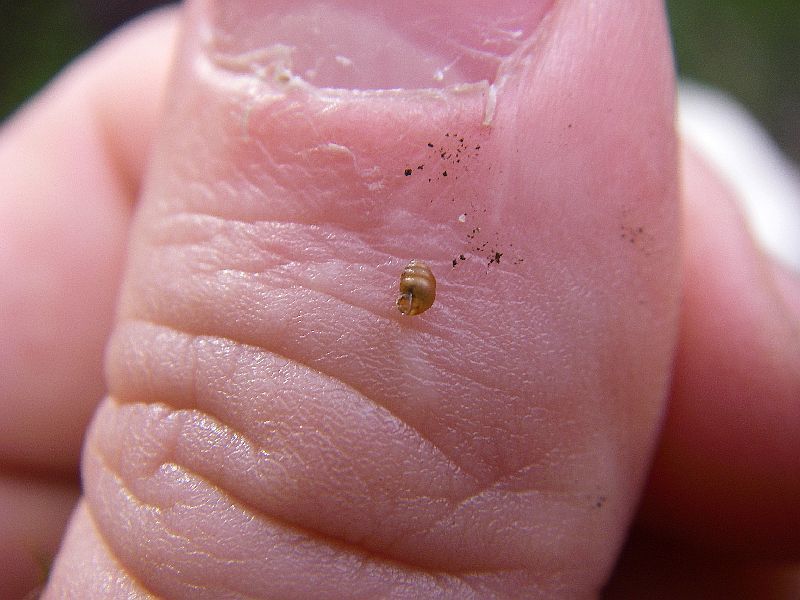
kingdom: Animalia
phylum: Mollusca
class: Gastropoda
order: Stylommatophora
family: Vertiginidae
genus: Vertigo
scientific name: Vertigo pusilla
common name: Wall whorl snail
